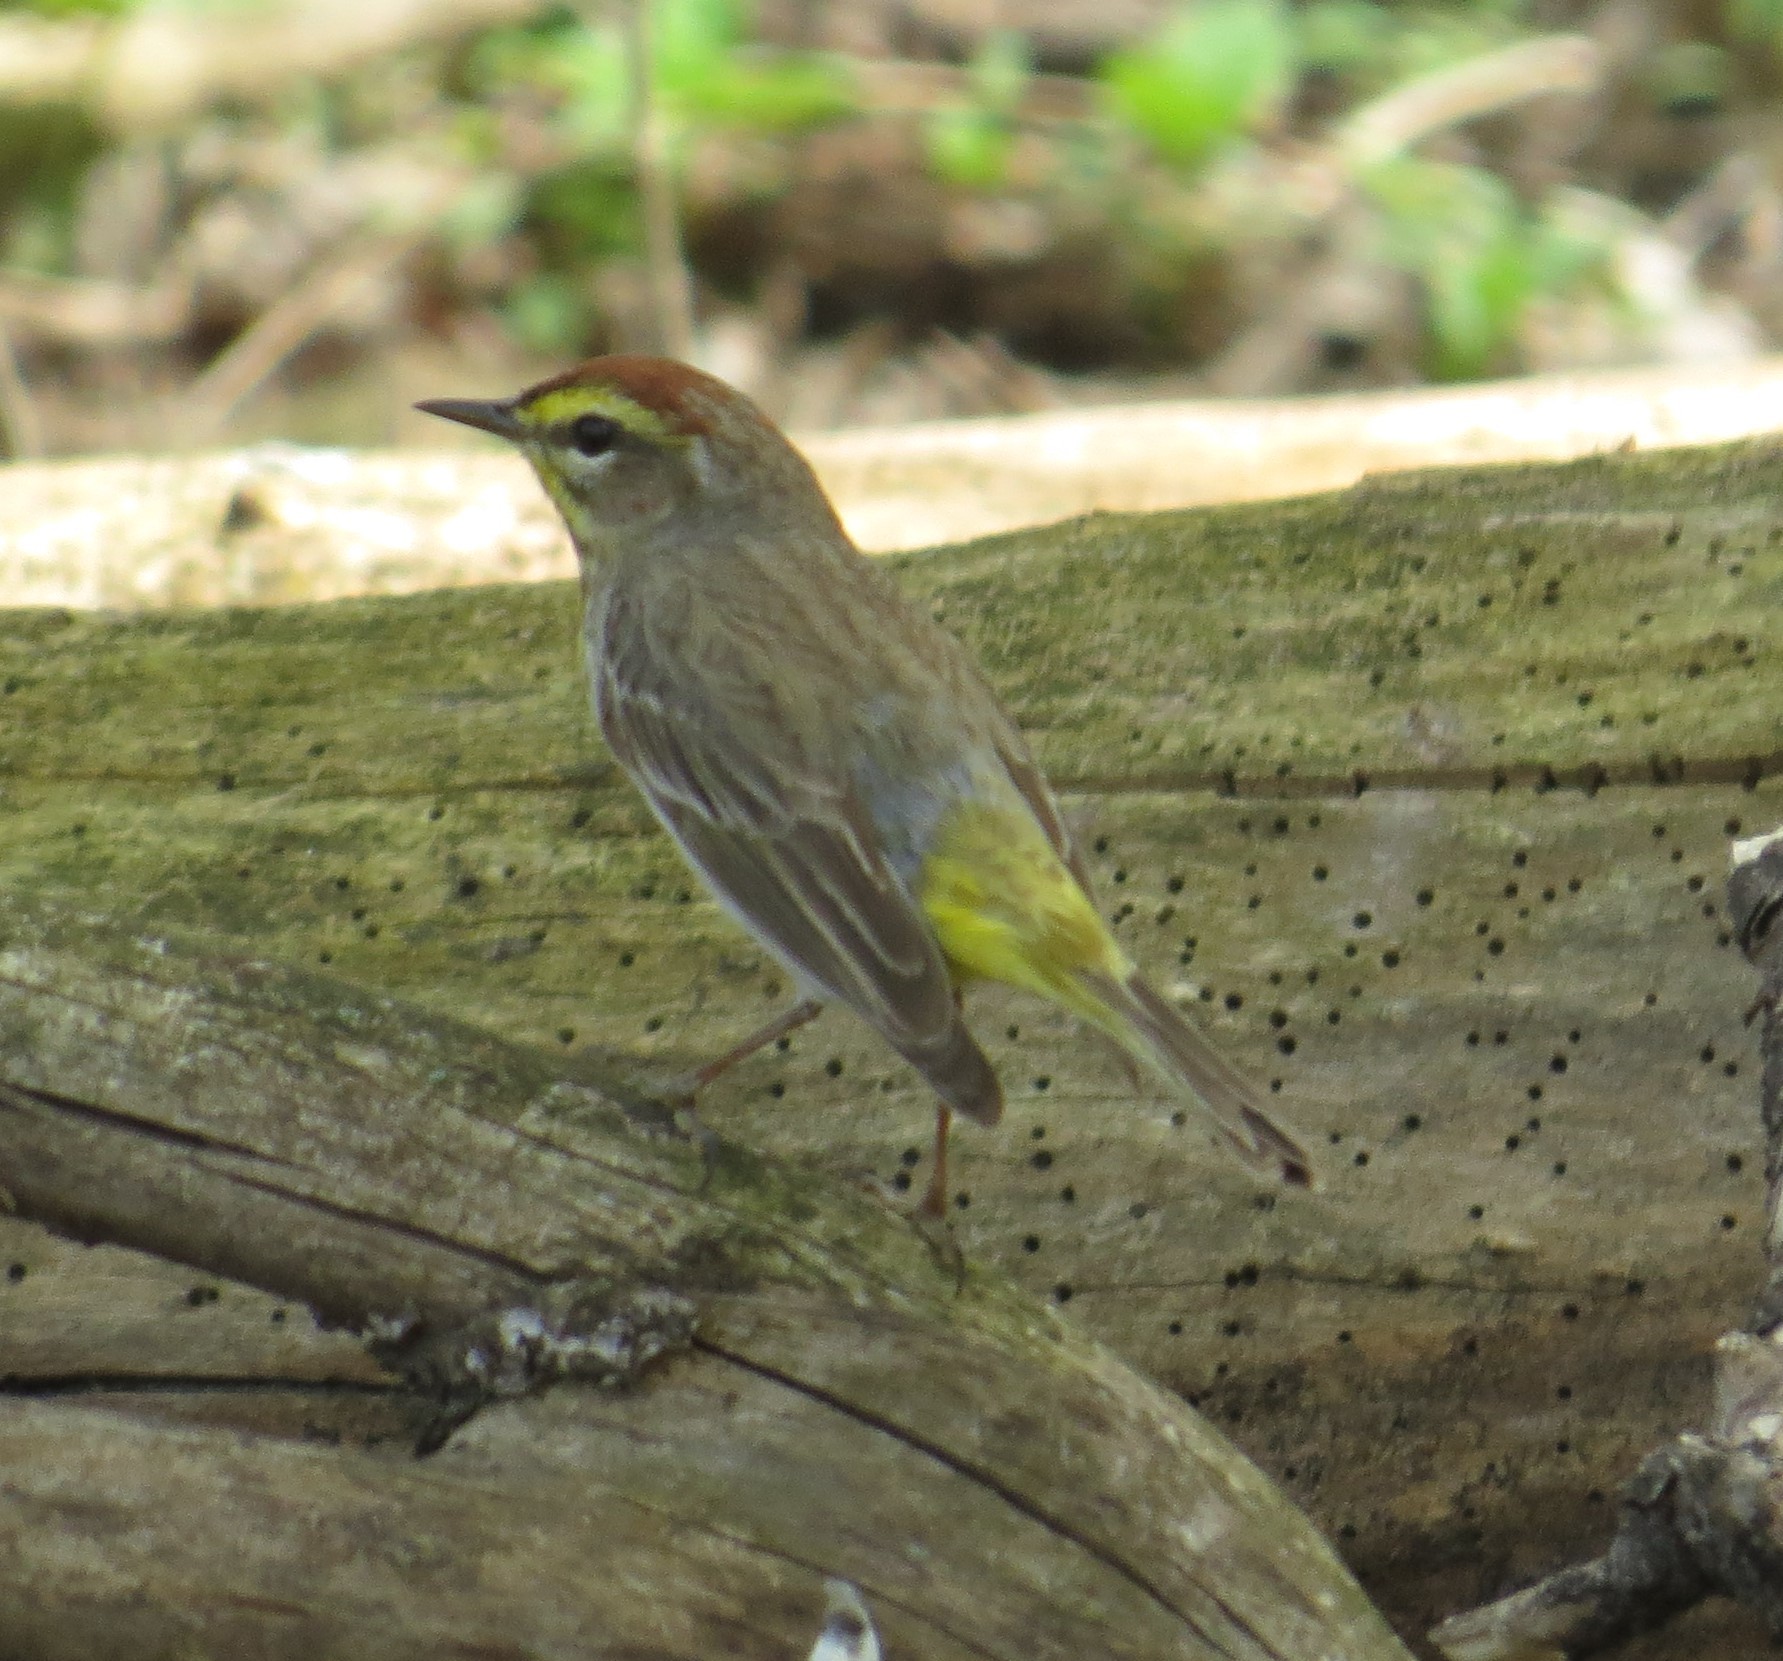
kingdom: Animalia
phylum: Chordata
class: Aves
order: Passeriformes
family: Parulidae
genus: Setophaga
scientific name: Setophaga palmarum
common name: Palm warbler
